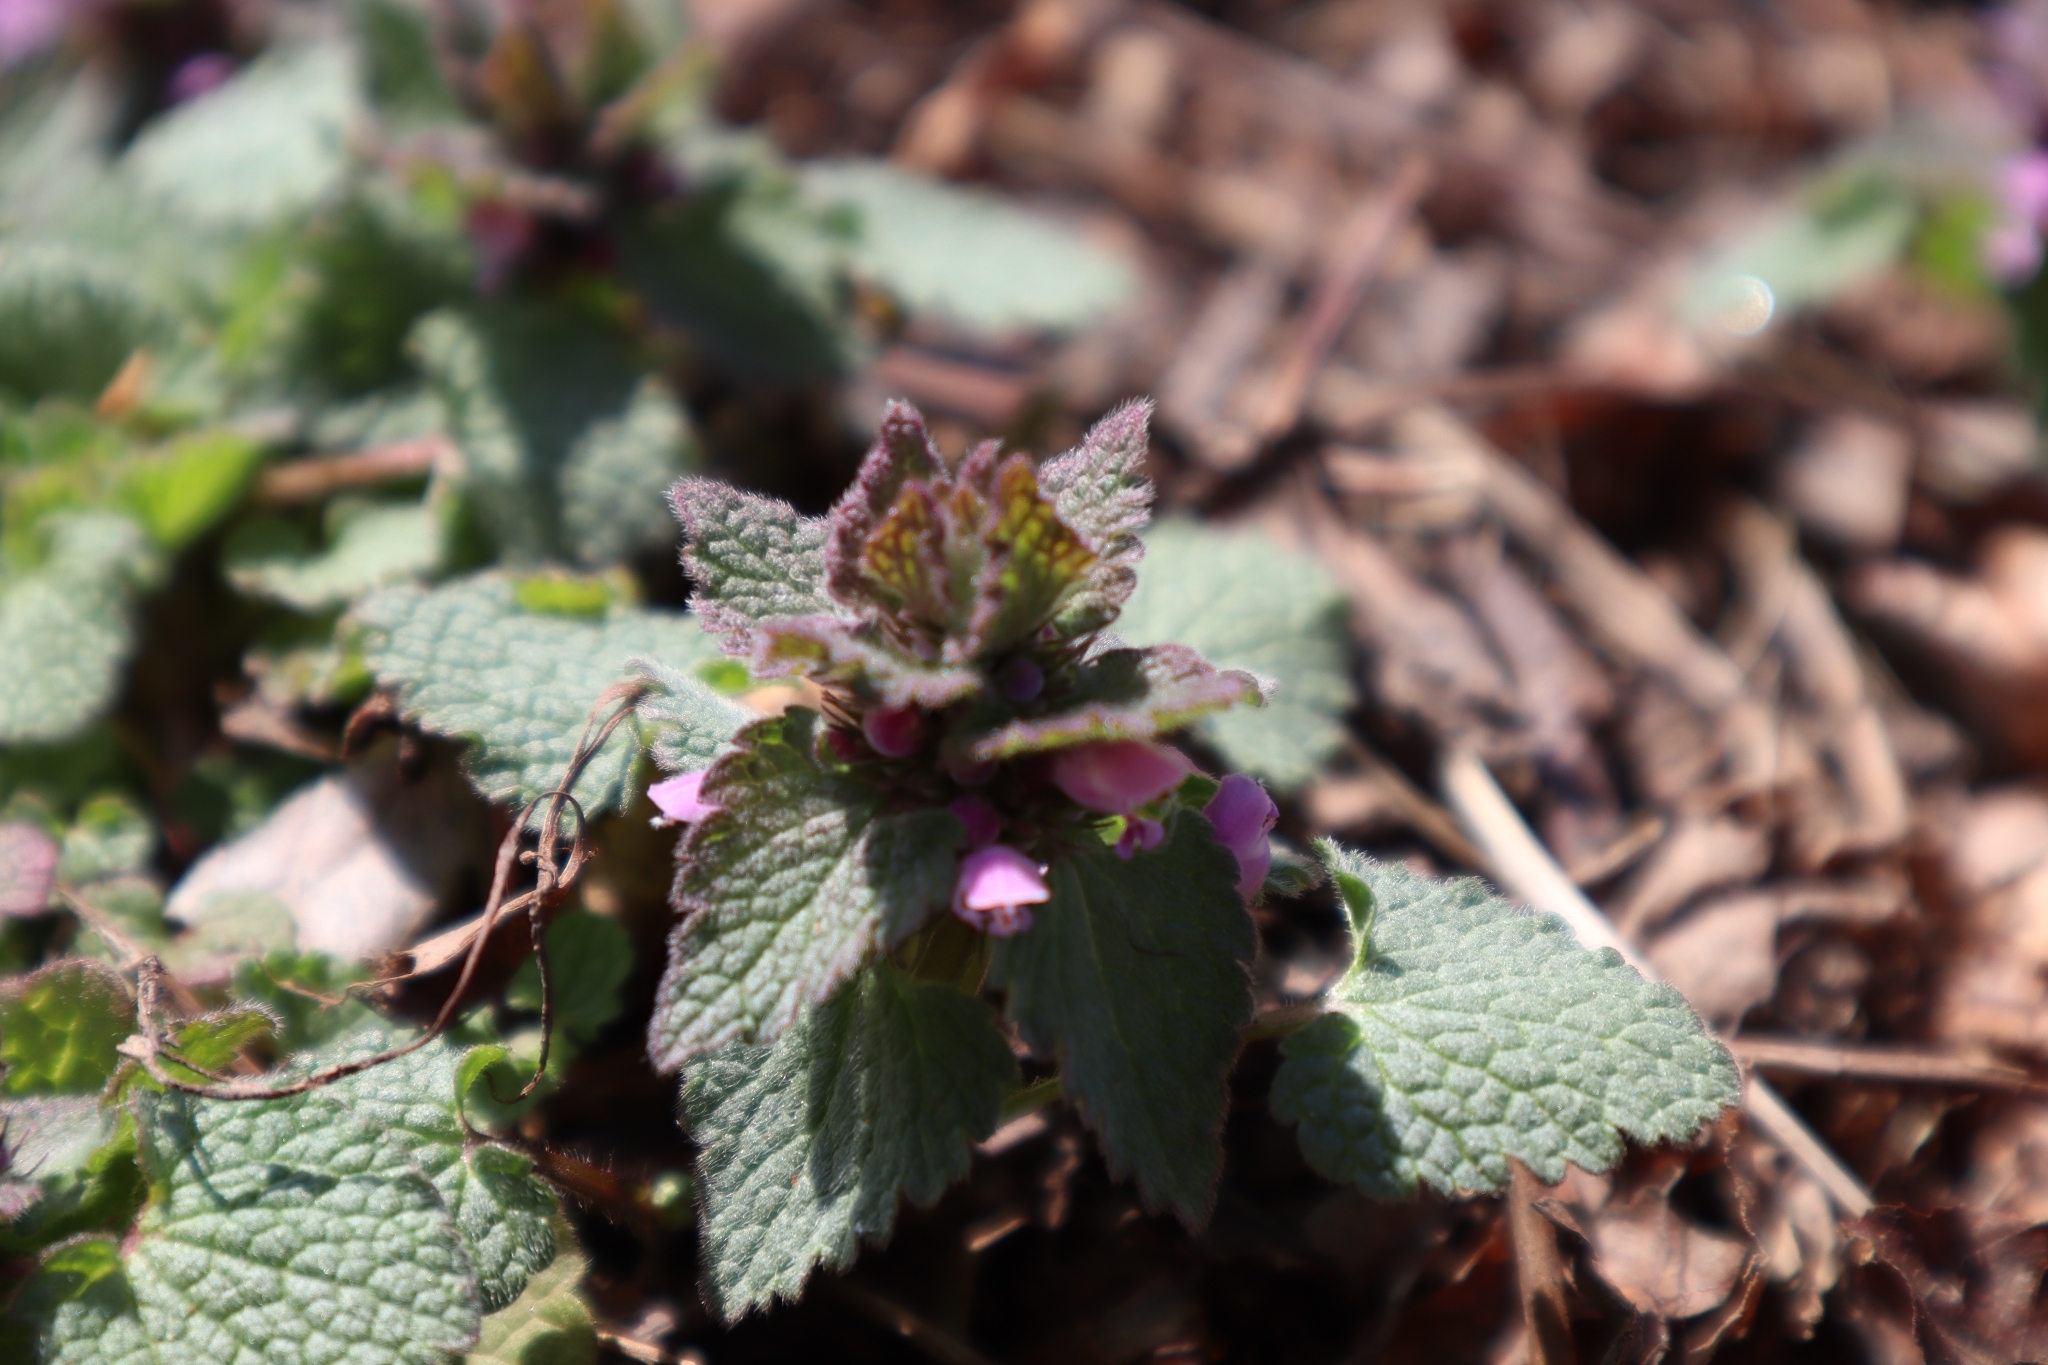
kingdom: Plantae
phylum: Tracheophyta
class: Magnoliopsida
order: Lamiales
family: Lamiaceae
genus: Lamium
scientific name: Lamium purpureum
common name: Red dead-nettle
